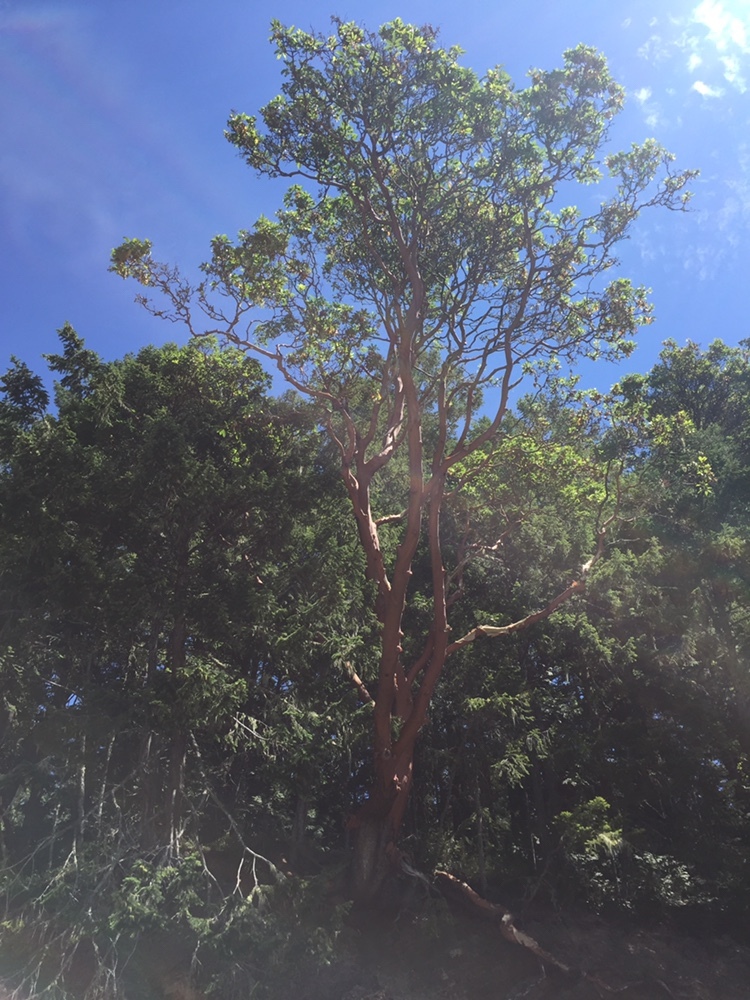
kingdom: Plantae
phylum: Tracheophyta
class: Magnoliopsida
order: Ericales
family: Ericaceae
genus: Arbutus
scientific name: Arbutus menziesii
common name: Pacific madrone
